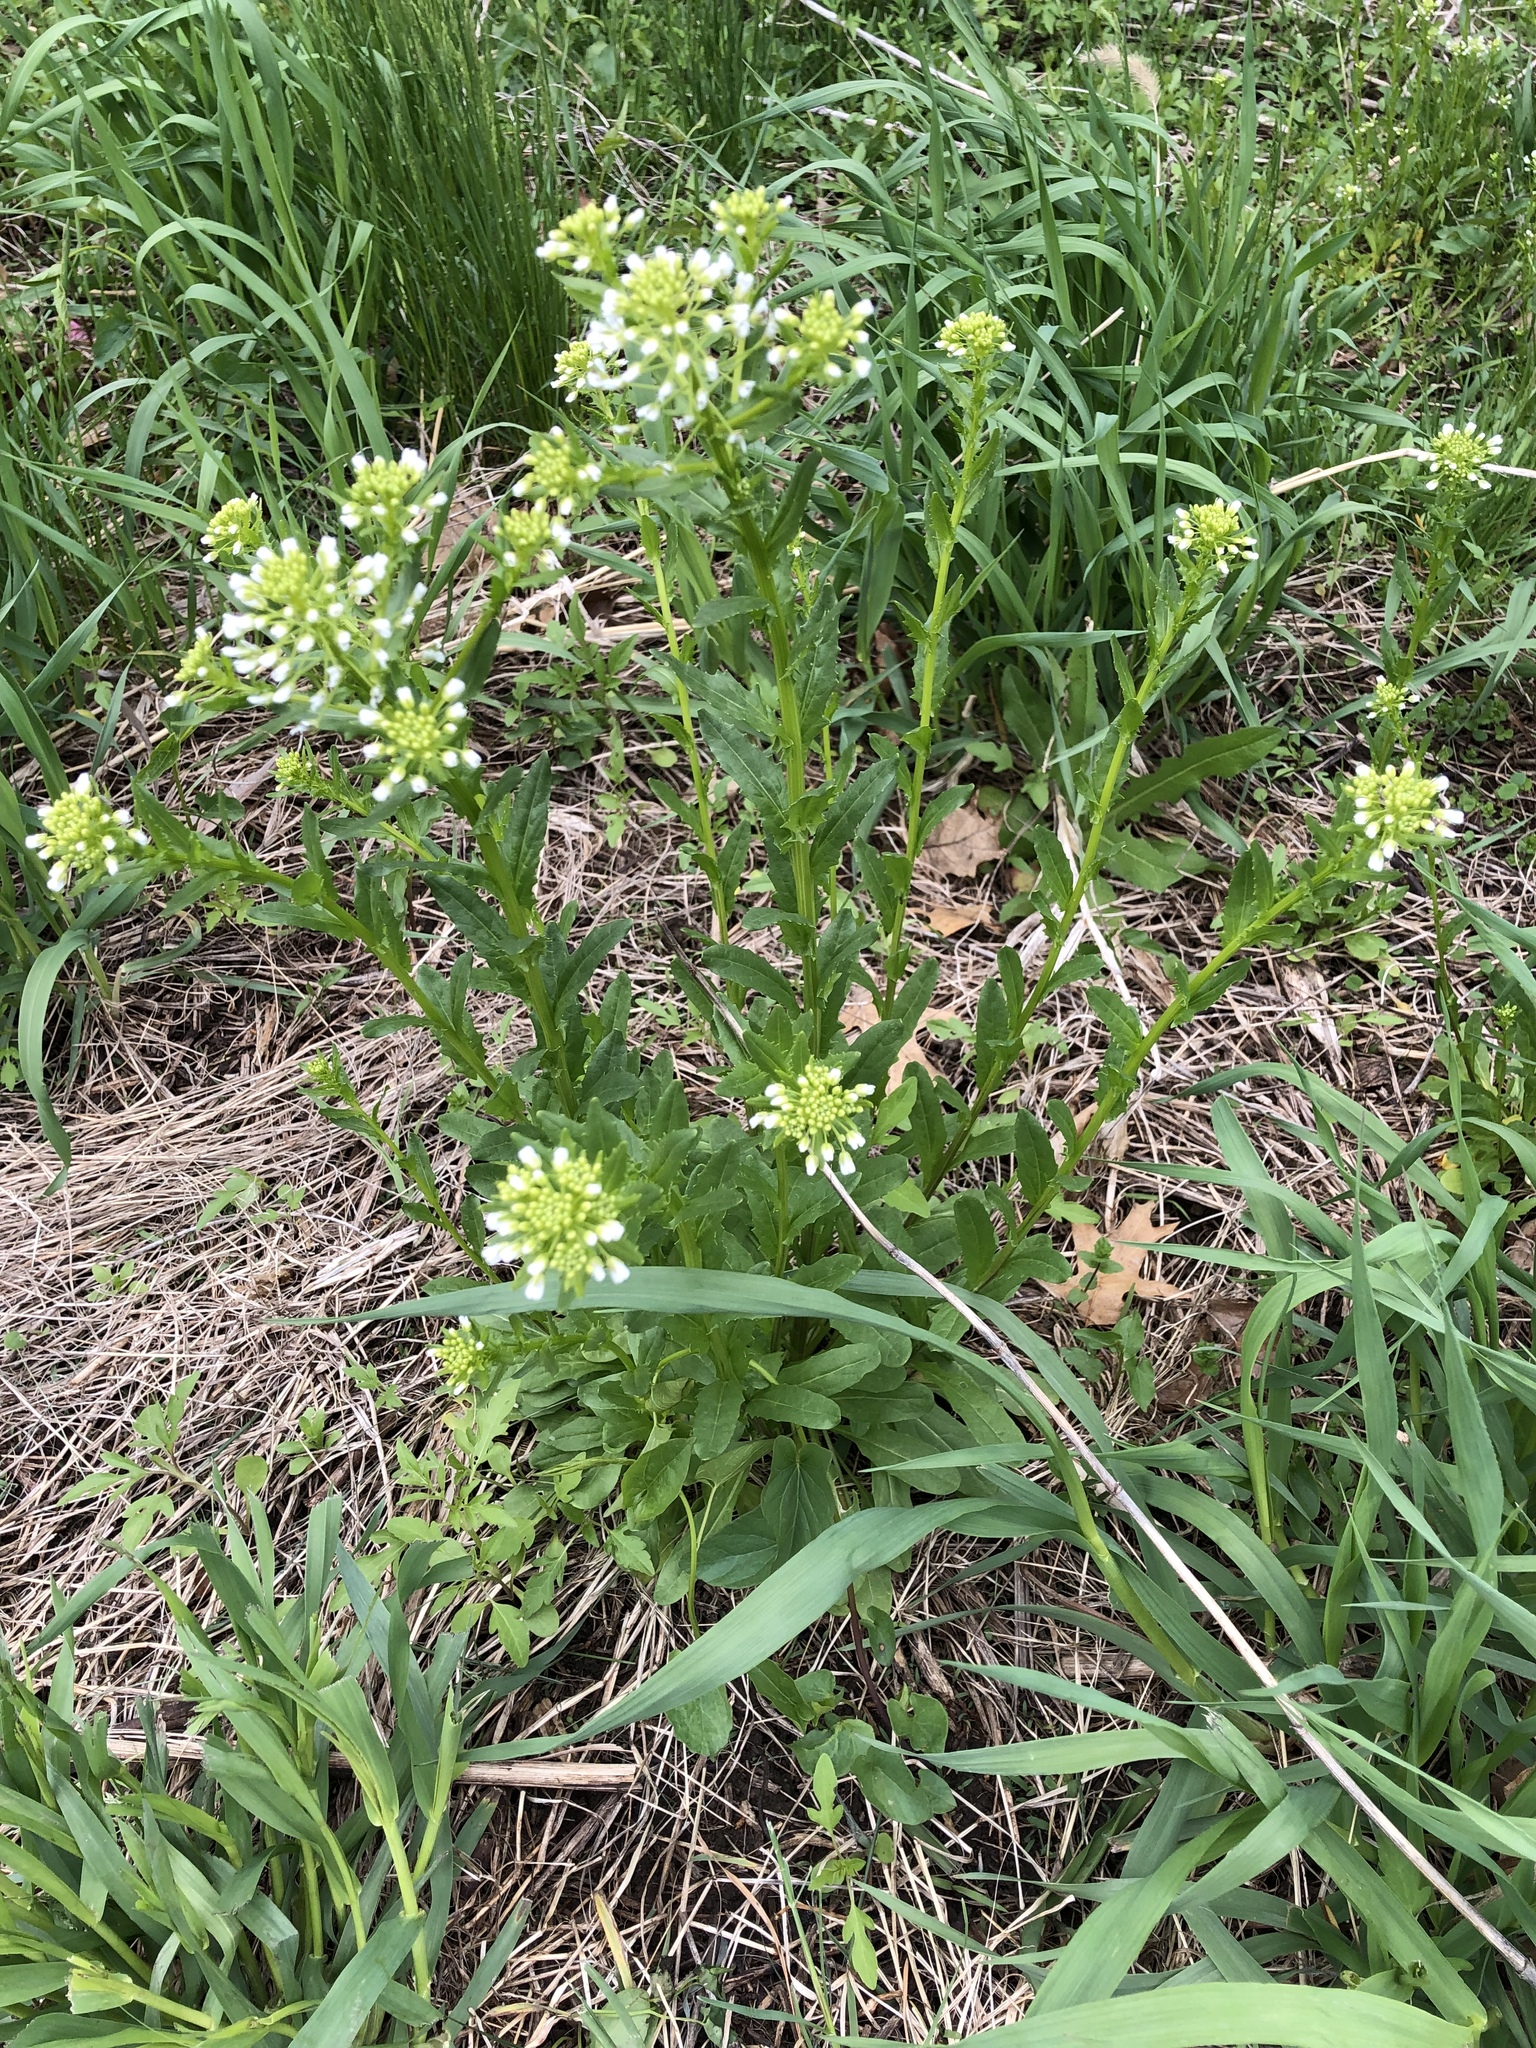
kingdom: Plantae
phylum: Tracheophyta
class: Magnoliopsida
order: Brassicales
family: Brassicaceae
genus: Thlaspi
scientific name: Thlaspi arvense
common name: Field pennycress
